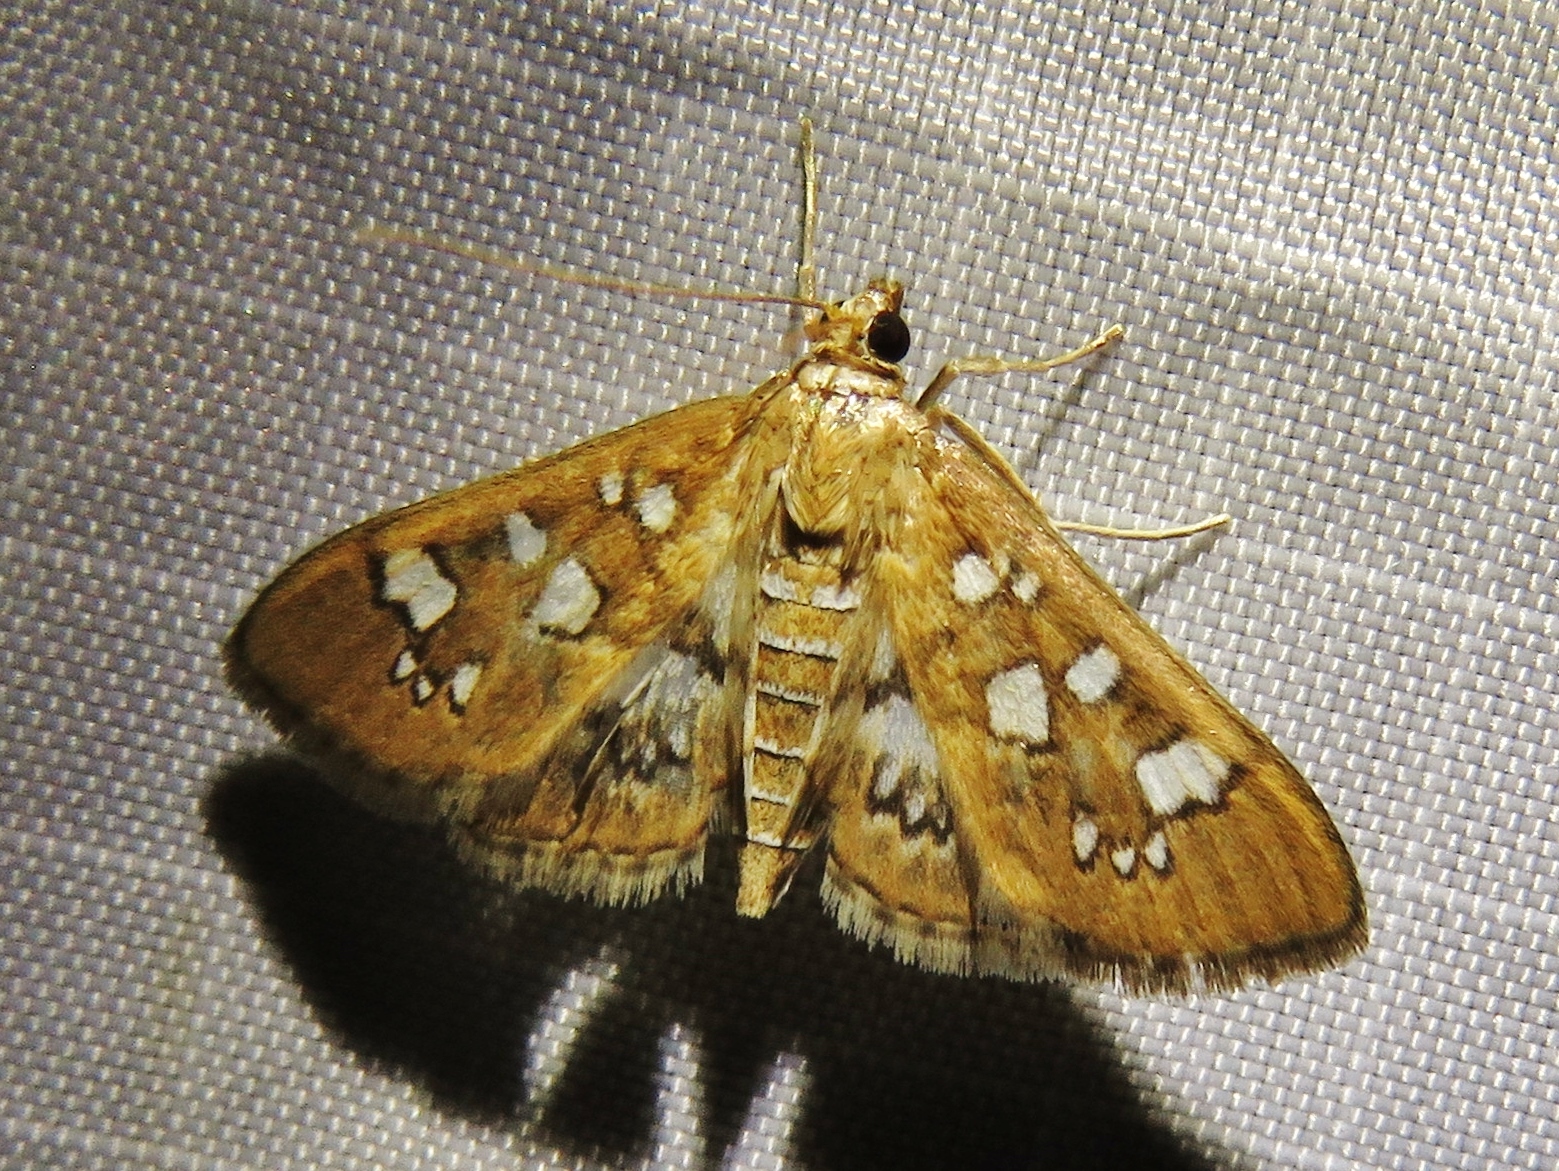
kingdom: Animalia
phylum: Arthropoda
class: Insecta
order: Lepidoptera
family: Crambidae
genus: Samea
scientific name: Samea baccatalis
